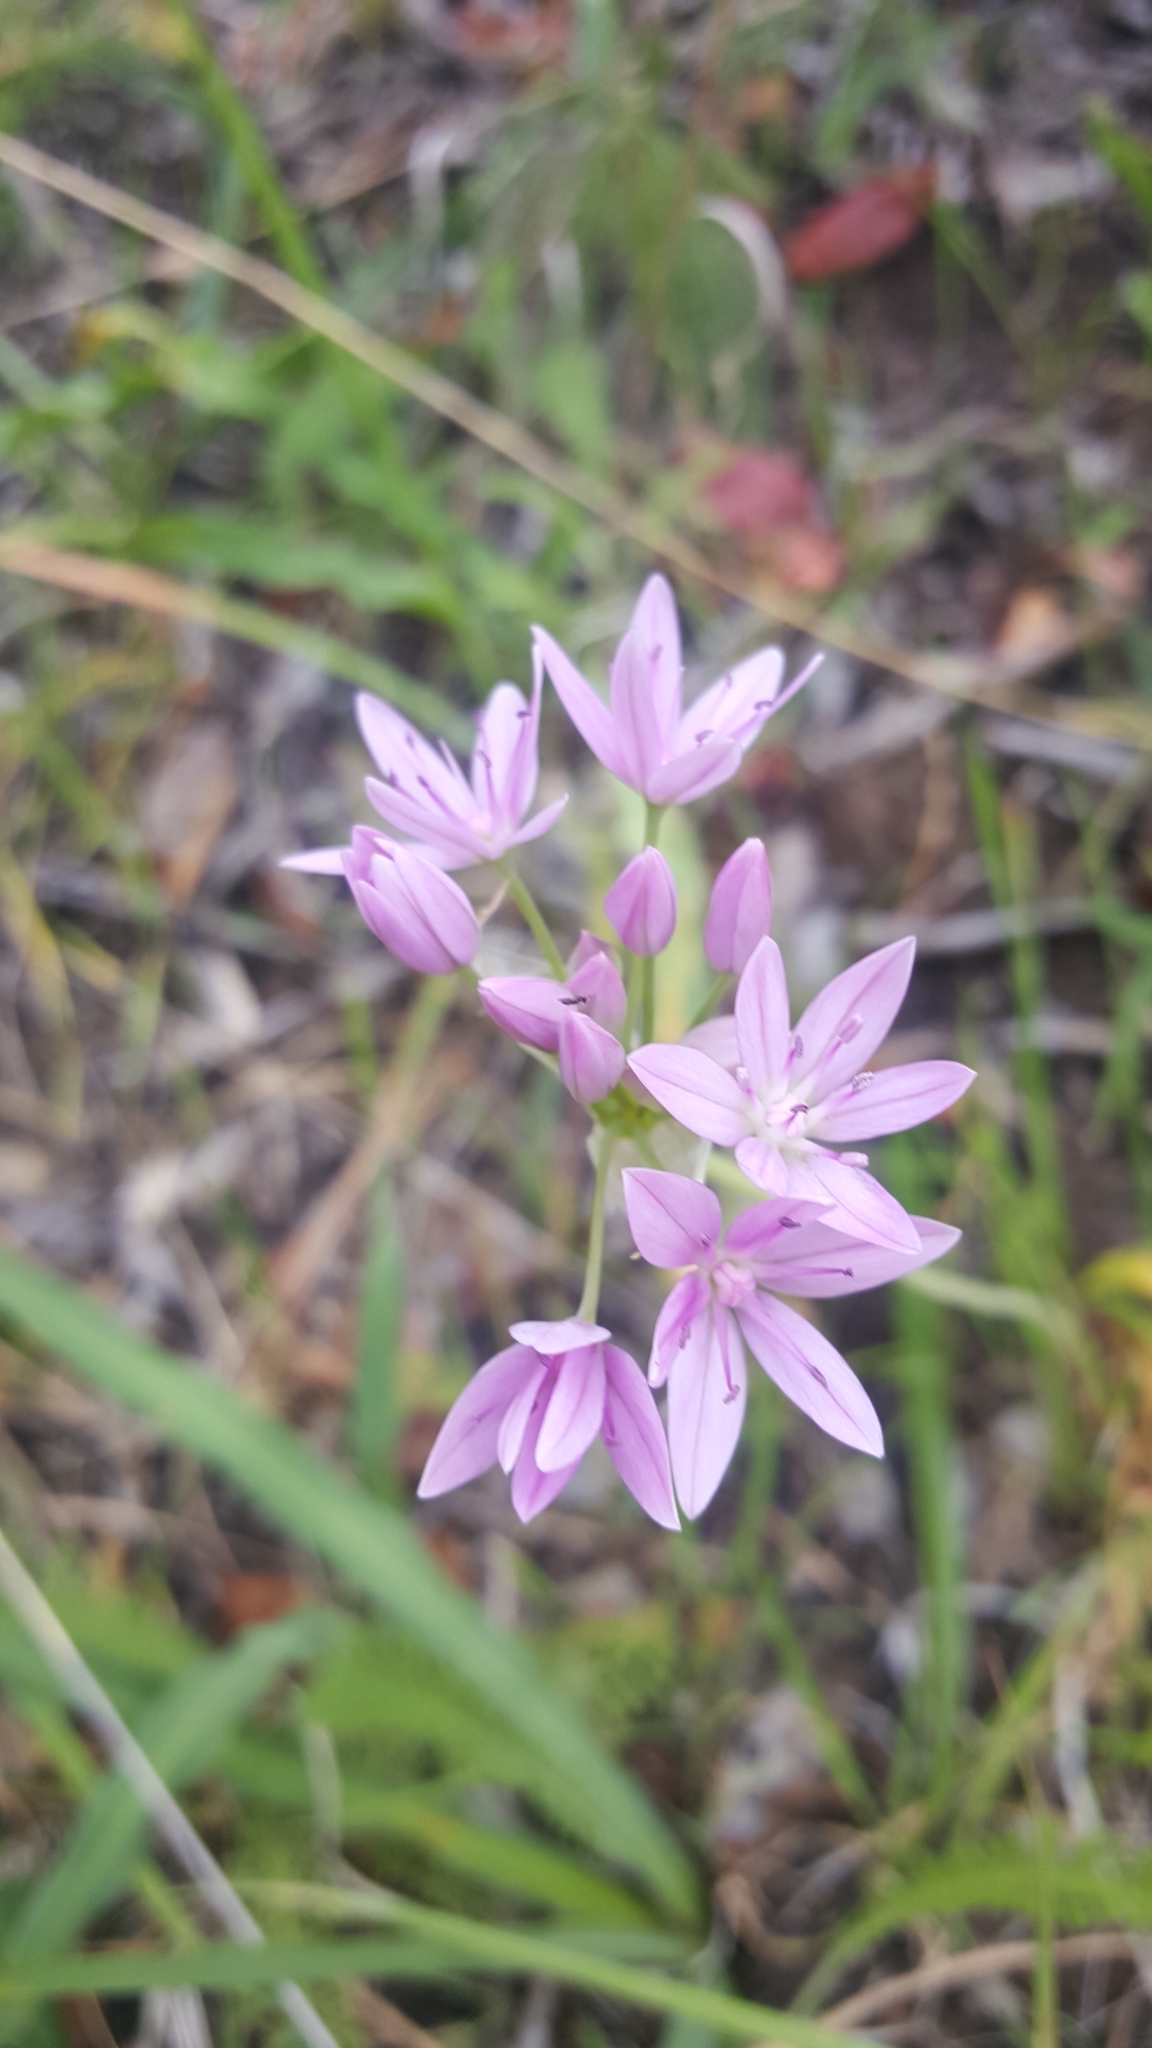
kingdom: Plantae
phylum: Tracheophyta
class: Liliopsida
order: Asparagales
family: Amaryllidaceae
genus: Allium
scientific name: Allium unifolium
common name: American garlic
